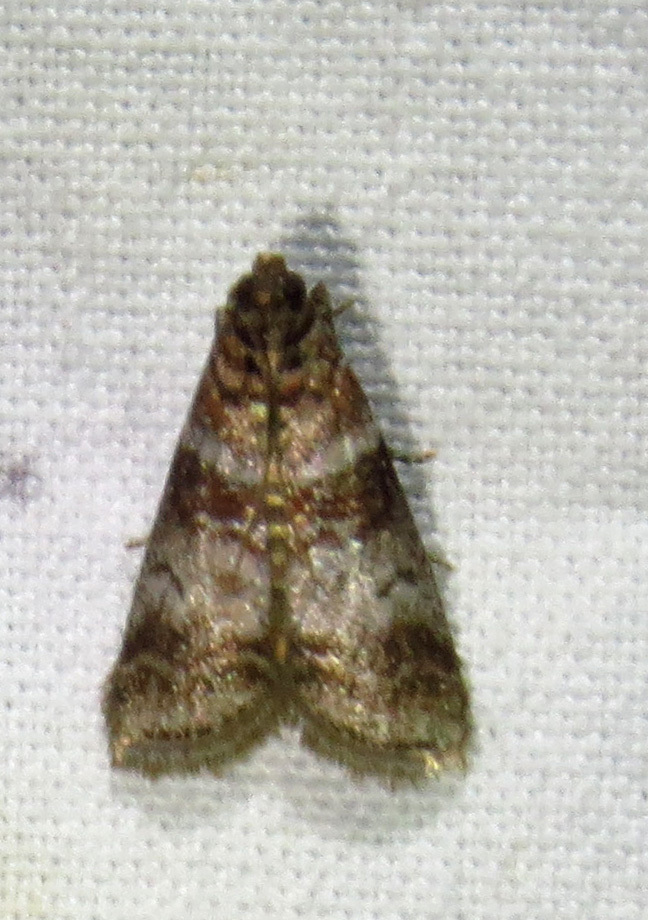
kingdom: Animalia
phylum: Arthropoda
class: Insecta
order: Lepidoptera
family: Pyralidae
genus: Sciota
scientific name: Sciota uvinella
